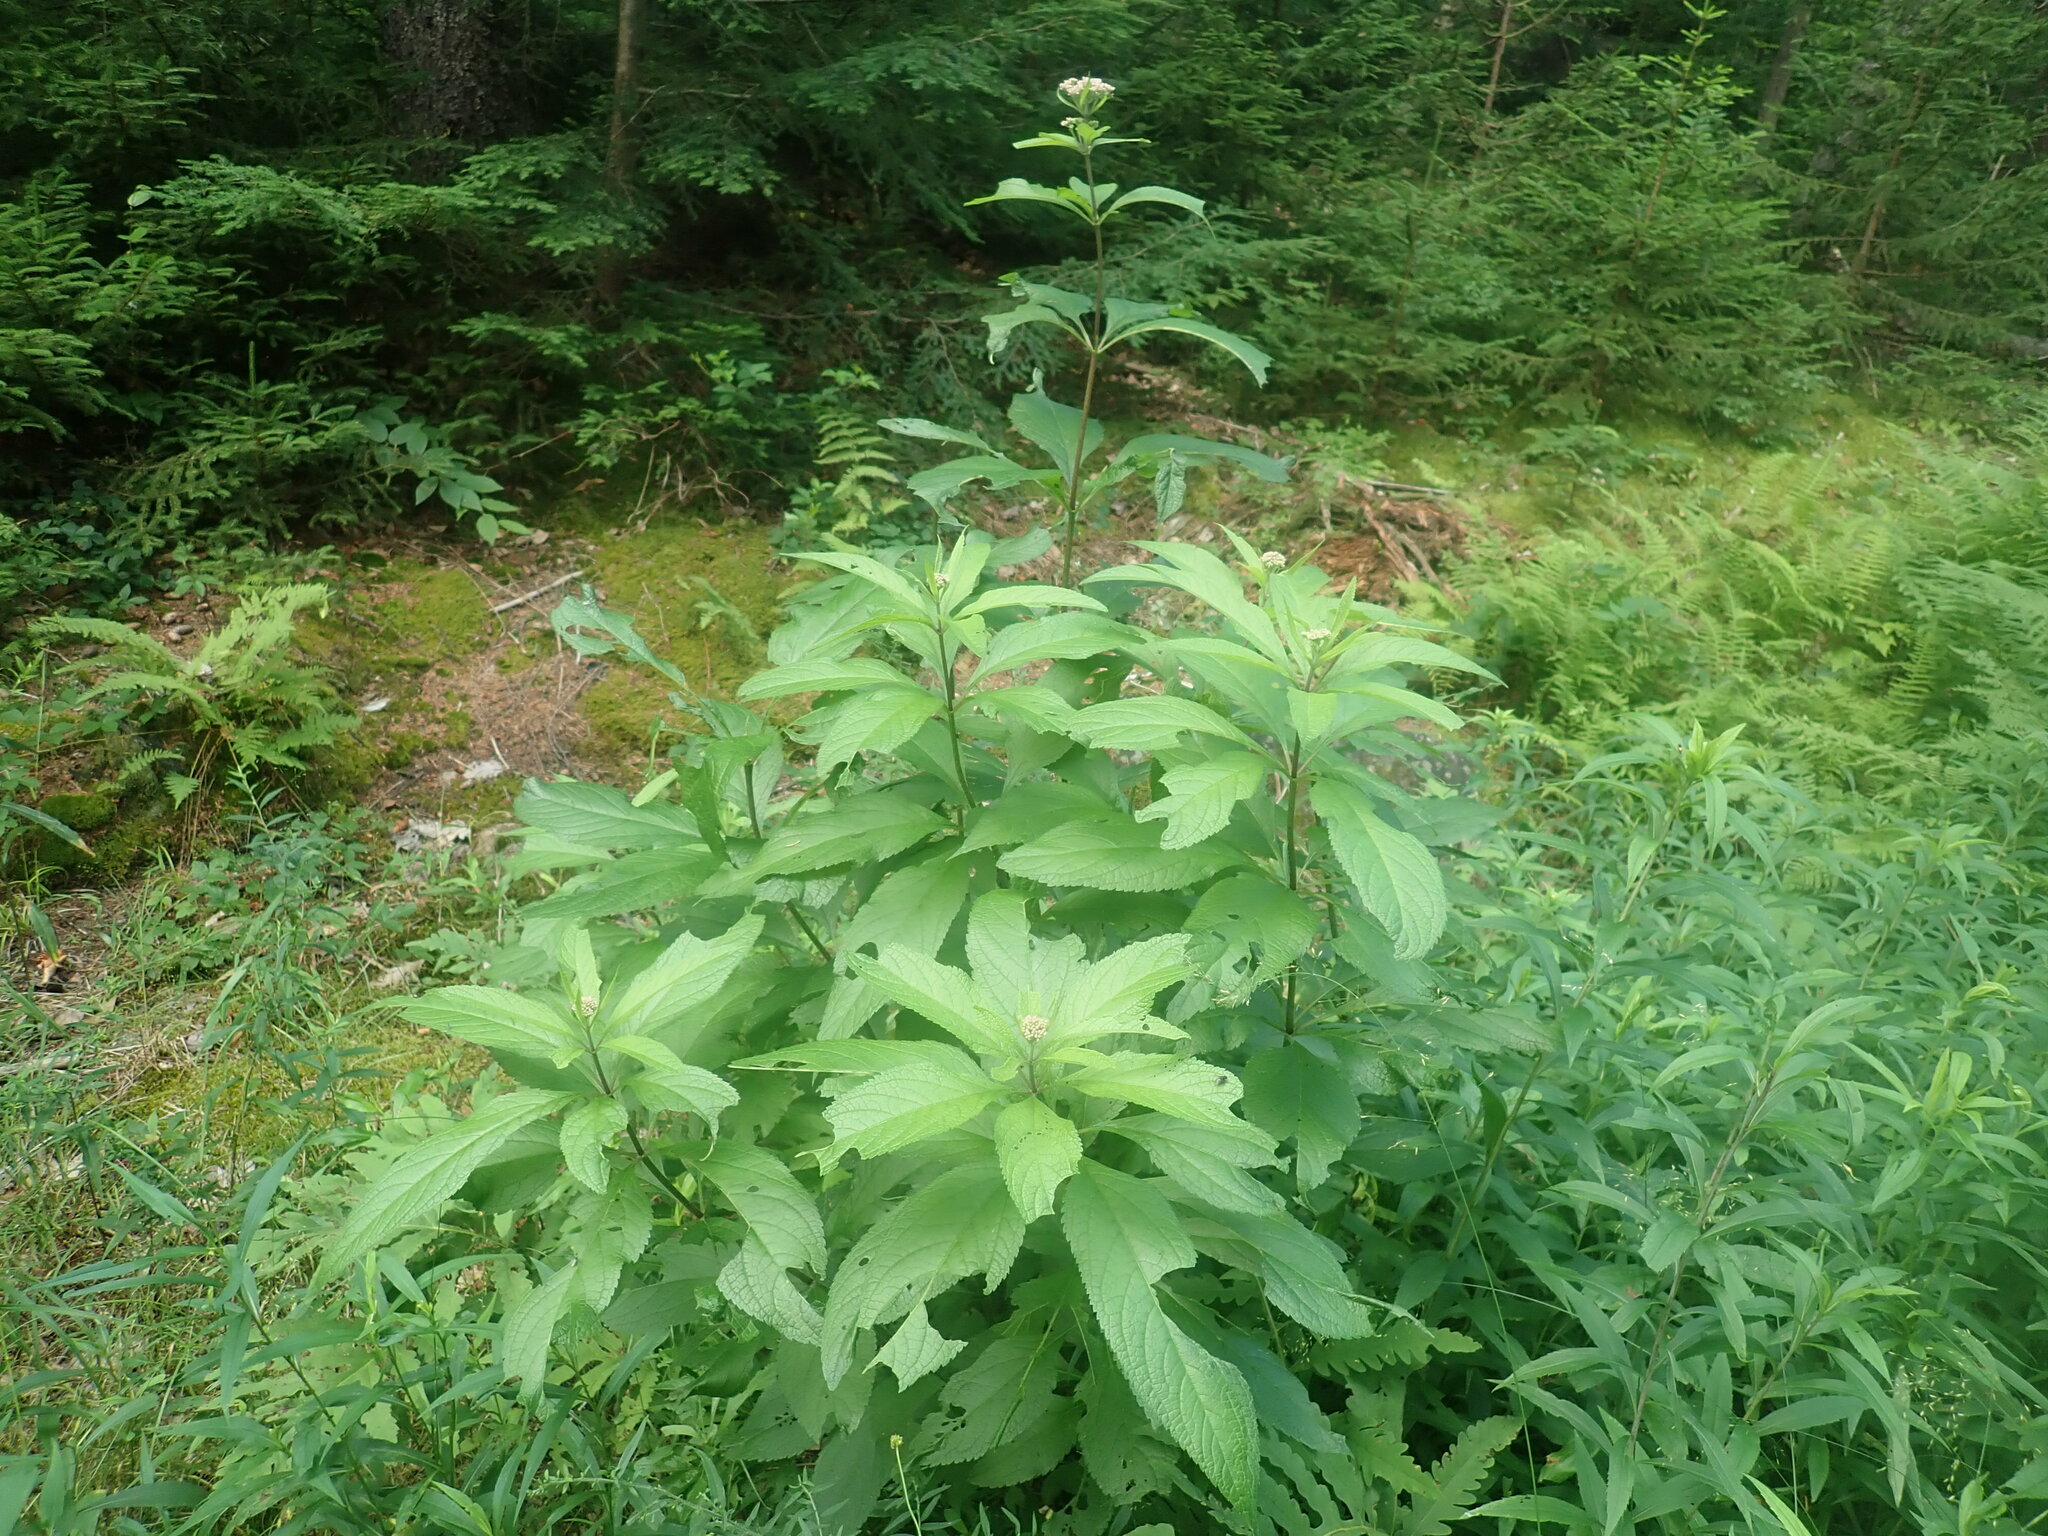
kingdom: Plantae
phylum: Tracheophyta
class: Magnoliopsida
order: Asterales
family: Asteraceae
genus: Eutrochium
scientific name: Eutrochium
